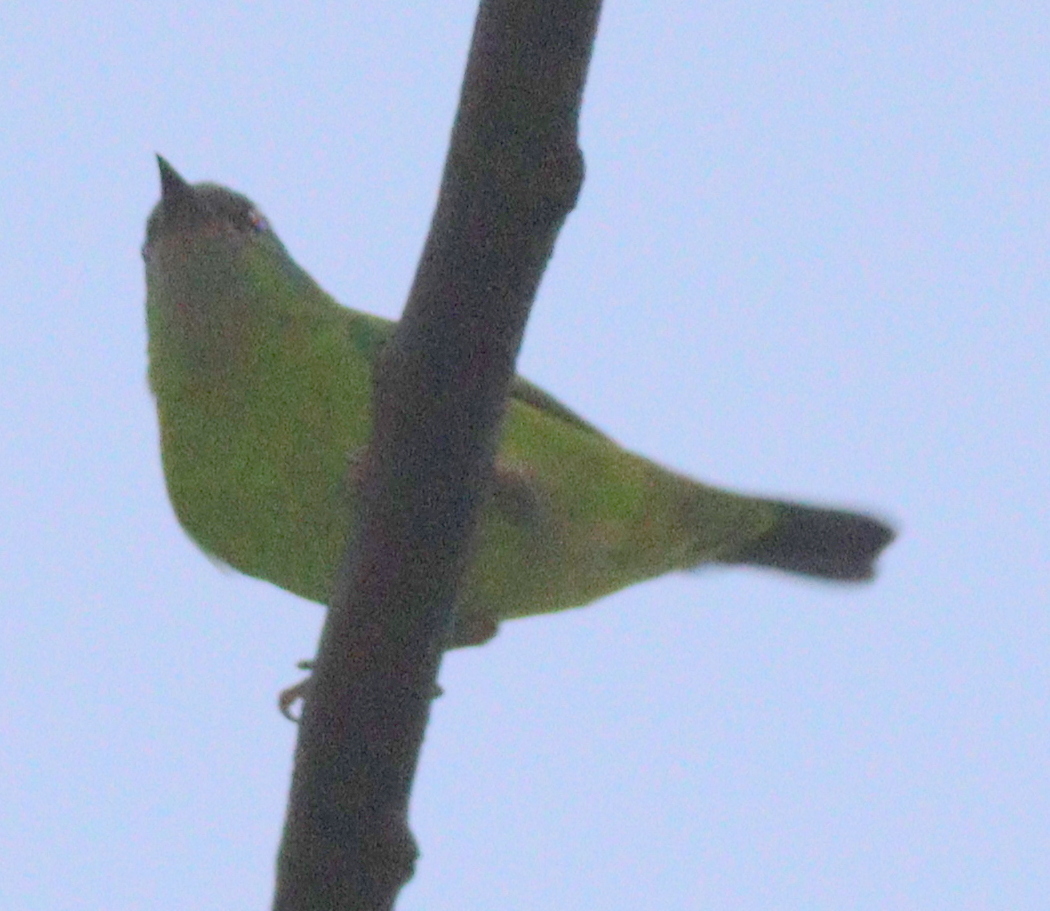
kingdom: Animalia
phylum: Chordata
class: Aves
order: Passeriformes
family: Thraupidae
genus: Dacnis
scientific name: Dacnis cayana
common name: Blue dacnis
